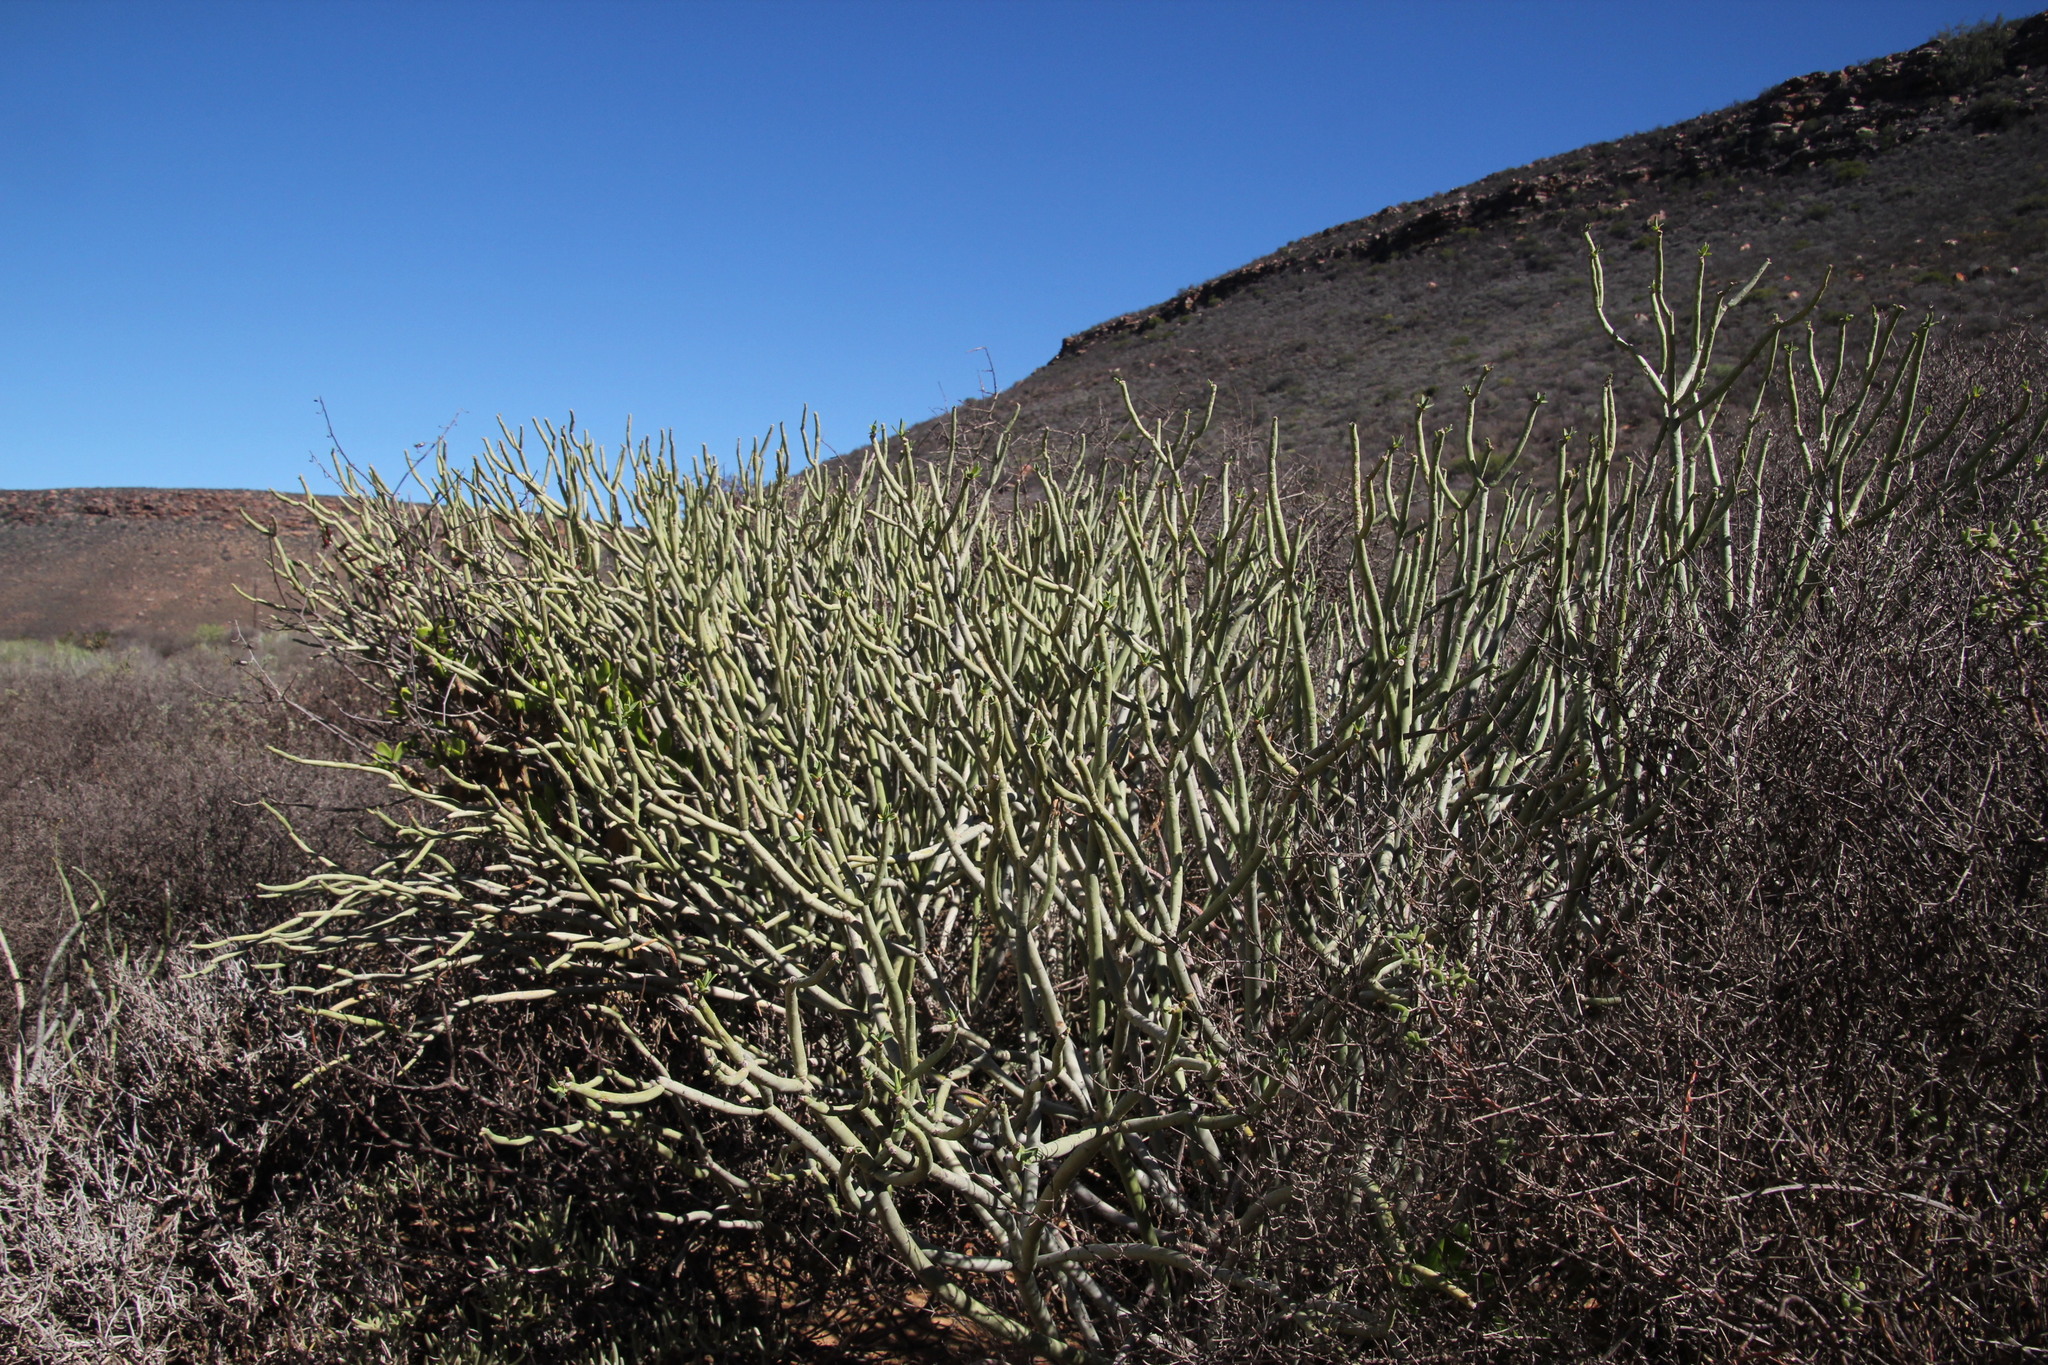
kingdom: Plantae
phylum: Tracheophyta
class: Magnoliopsida
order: Malpighiales
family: Euphorbiaceae
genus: Euphorbia
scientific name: Euphorbia mauritanica
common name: Jackal's-food
